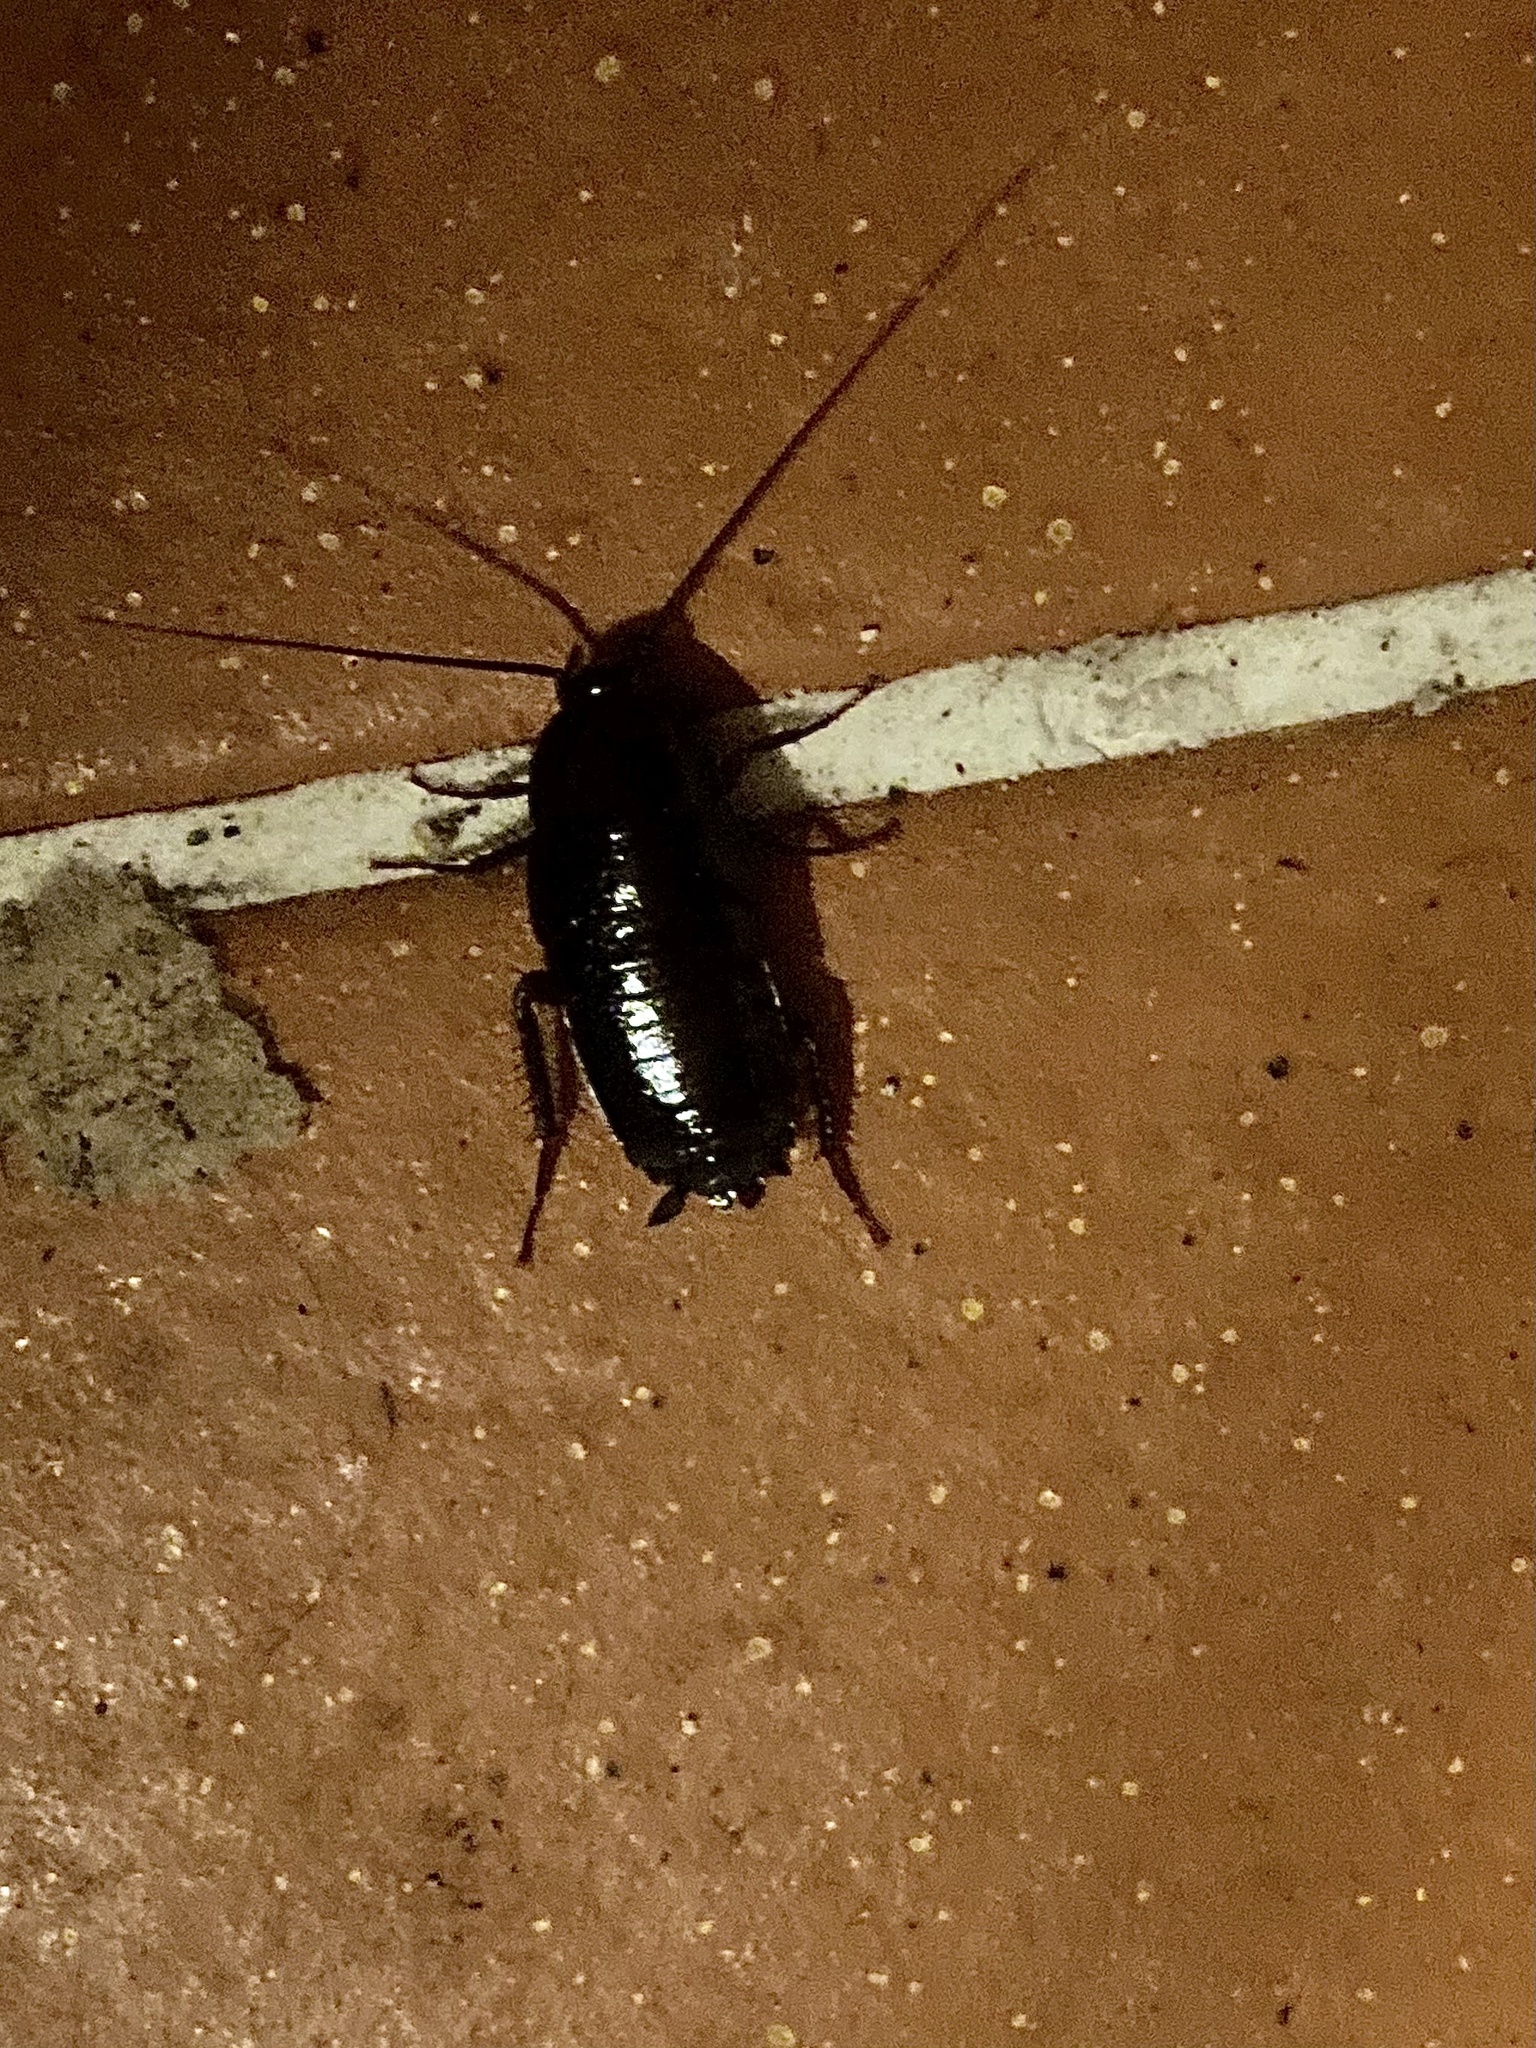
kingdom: Animalia
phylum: Arthropoda
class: Insecta
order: Blattodea
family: Blattidae
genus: Blatta
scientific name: Blatta orientalis
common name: Oriental cockroach
